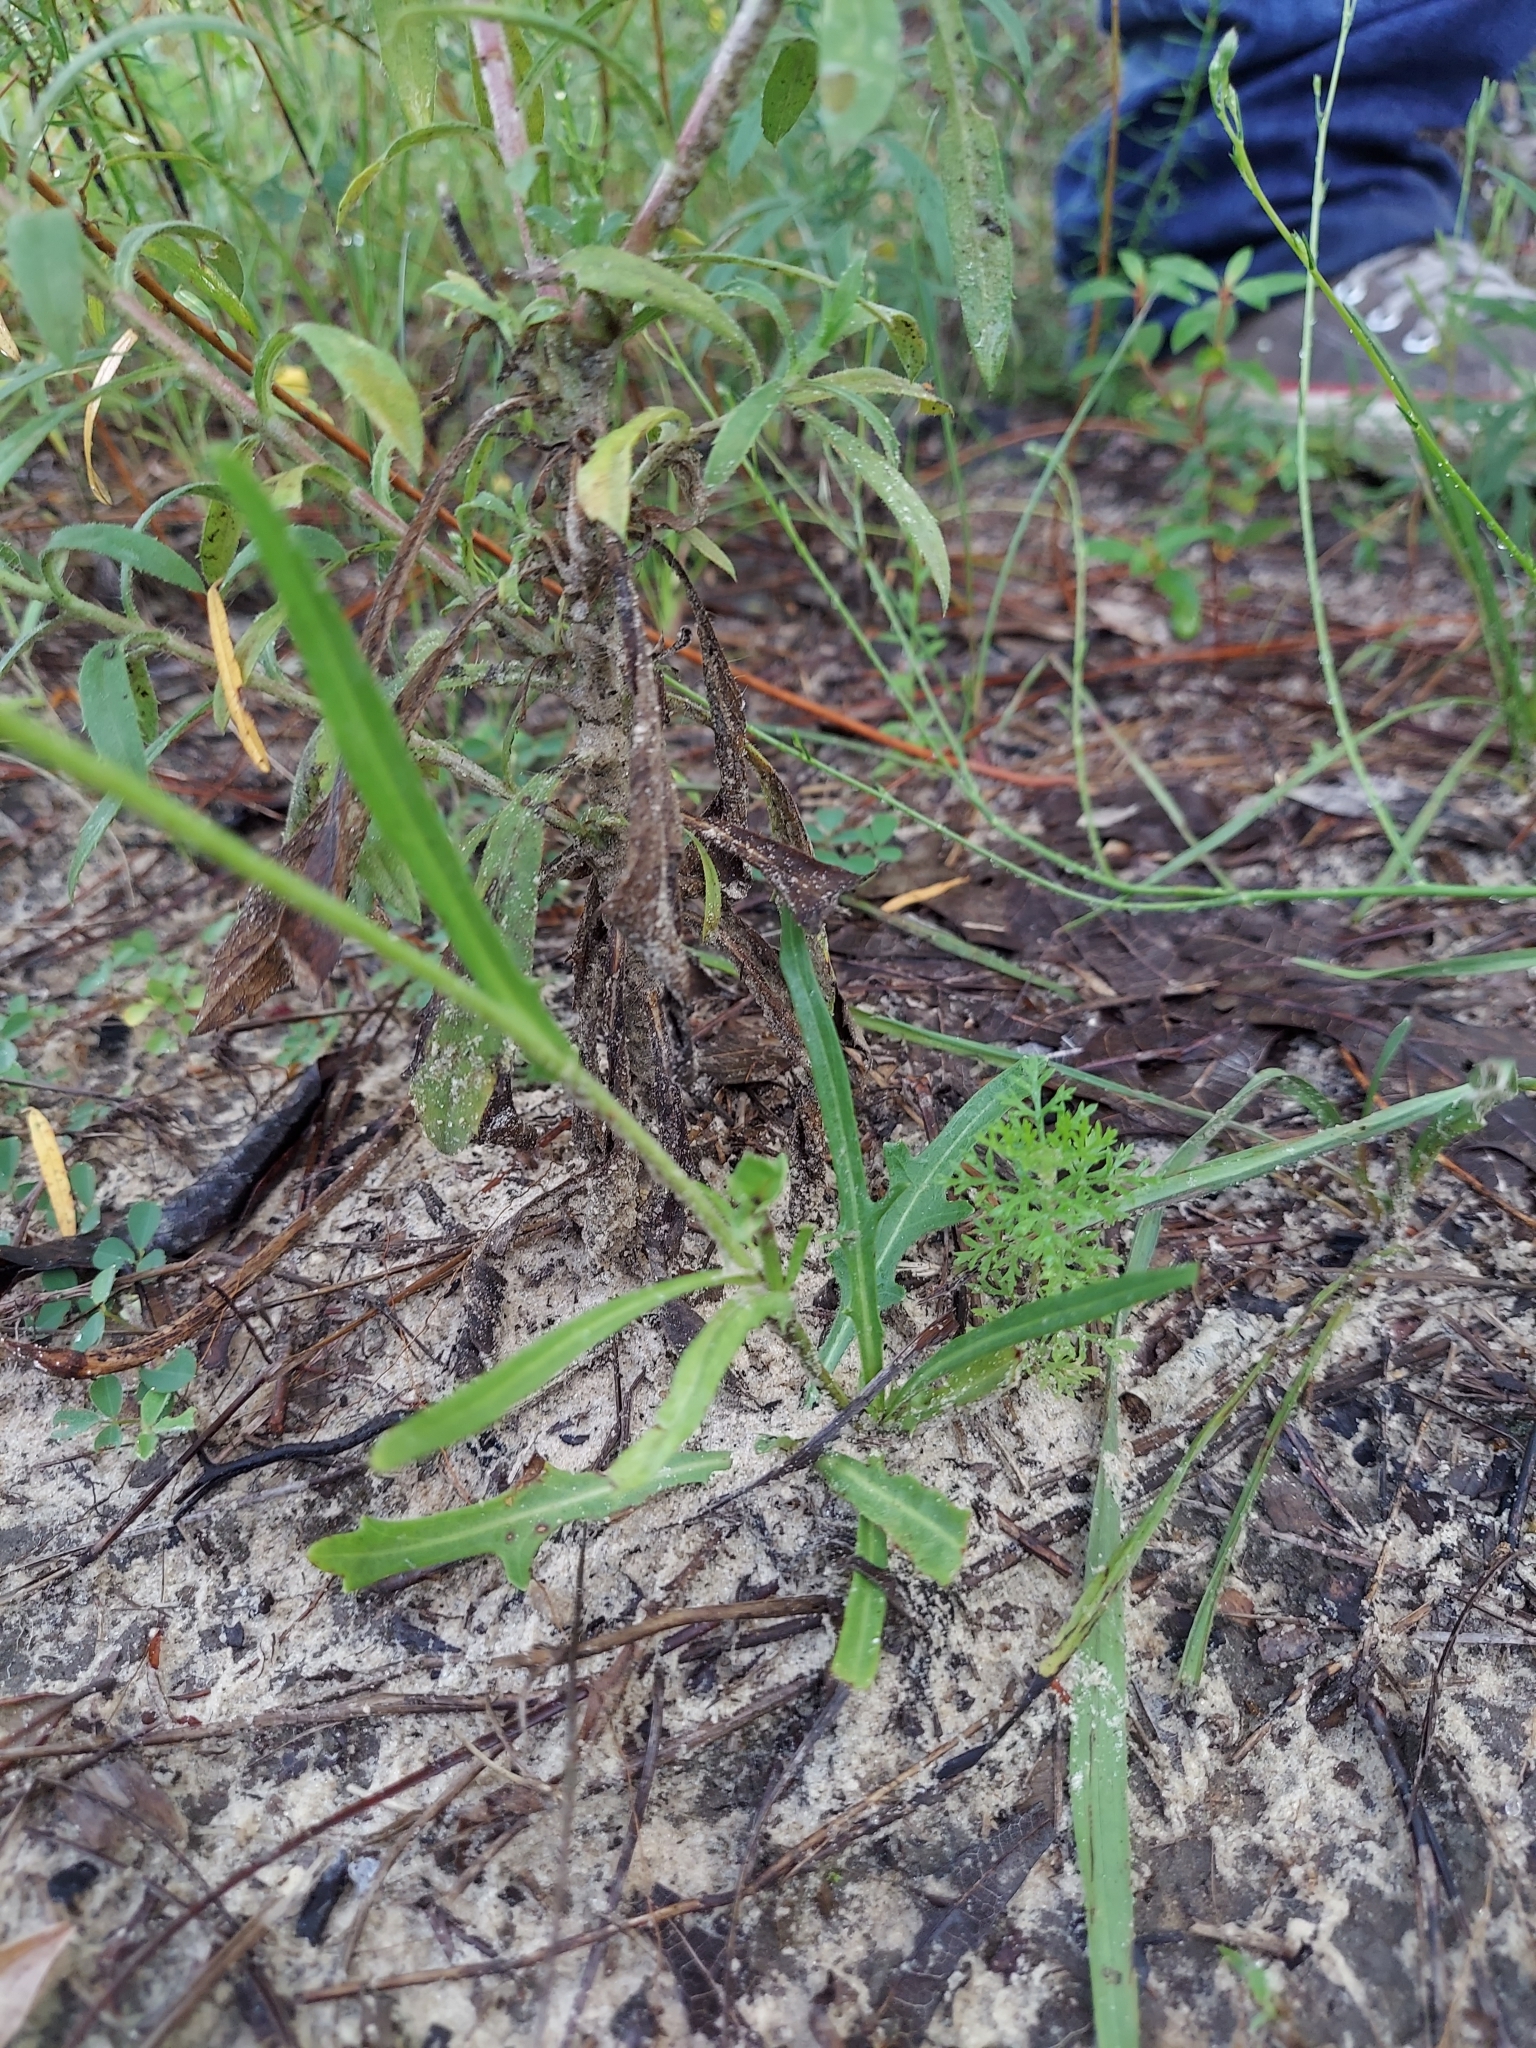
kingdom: Plantae
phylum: Tracheophyta
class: Magnoliopsida
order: Asterales
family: Asteraceae
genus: Pyrrhopappus
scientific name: Pyrrhopappus carolinianus
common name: Carolina desert-chicory
